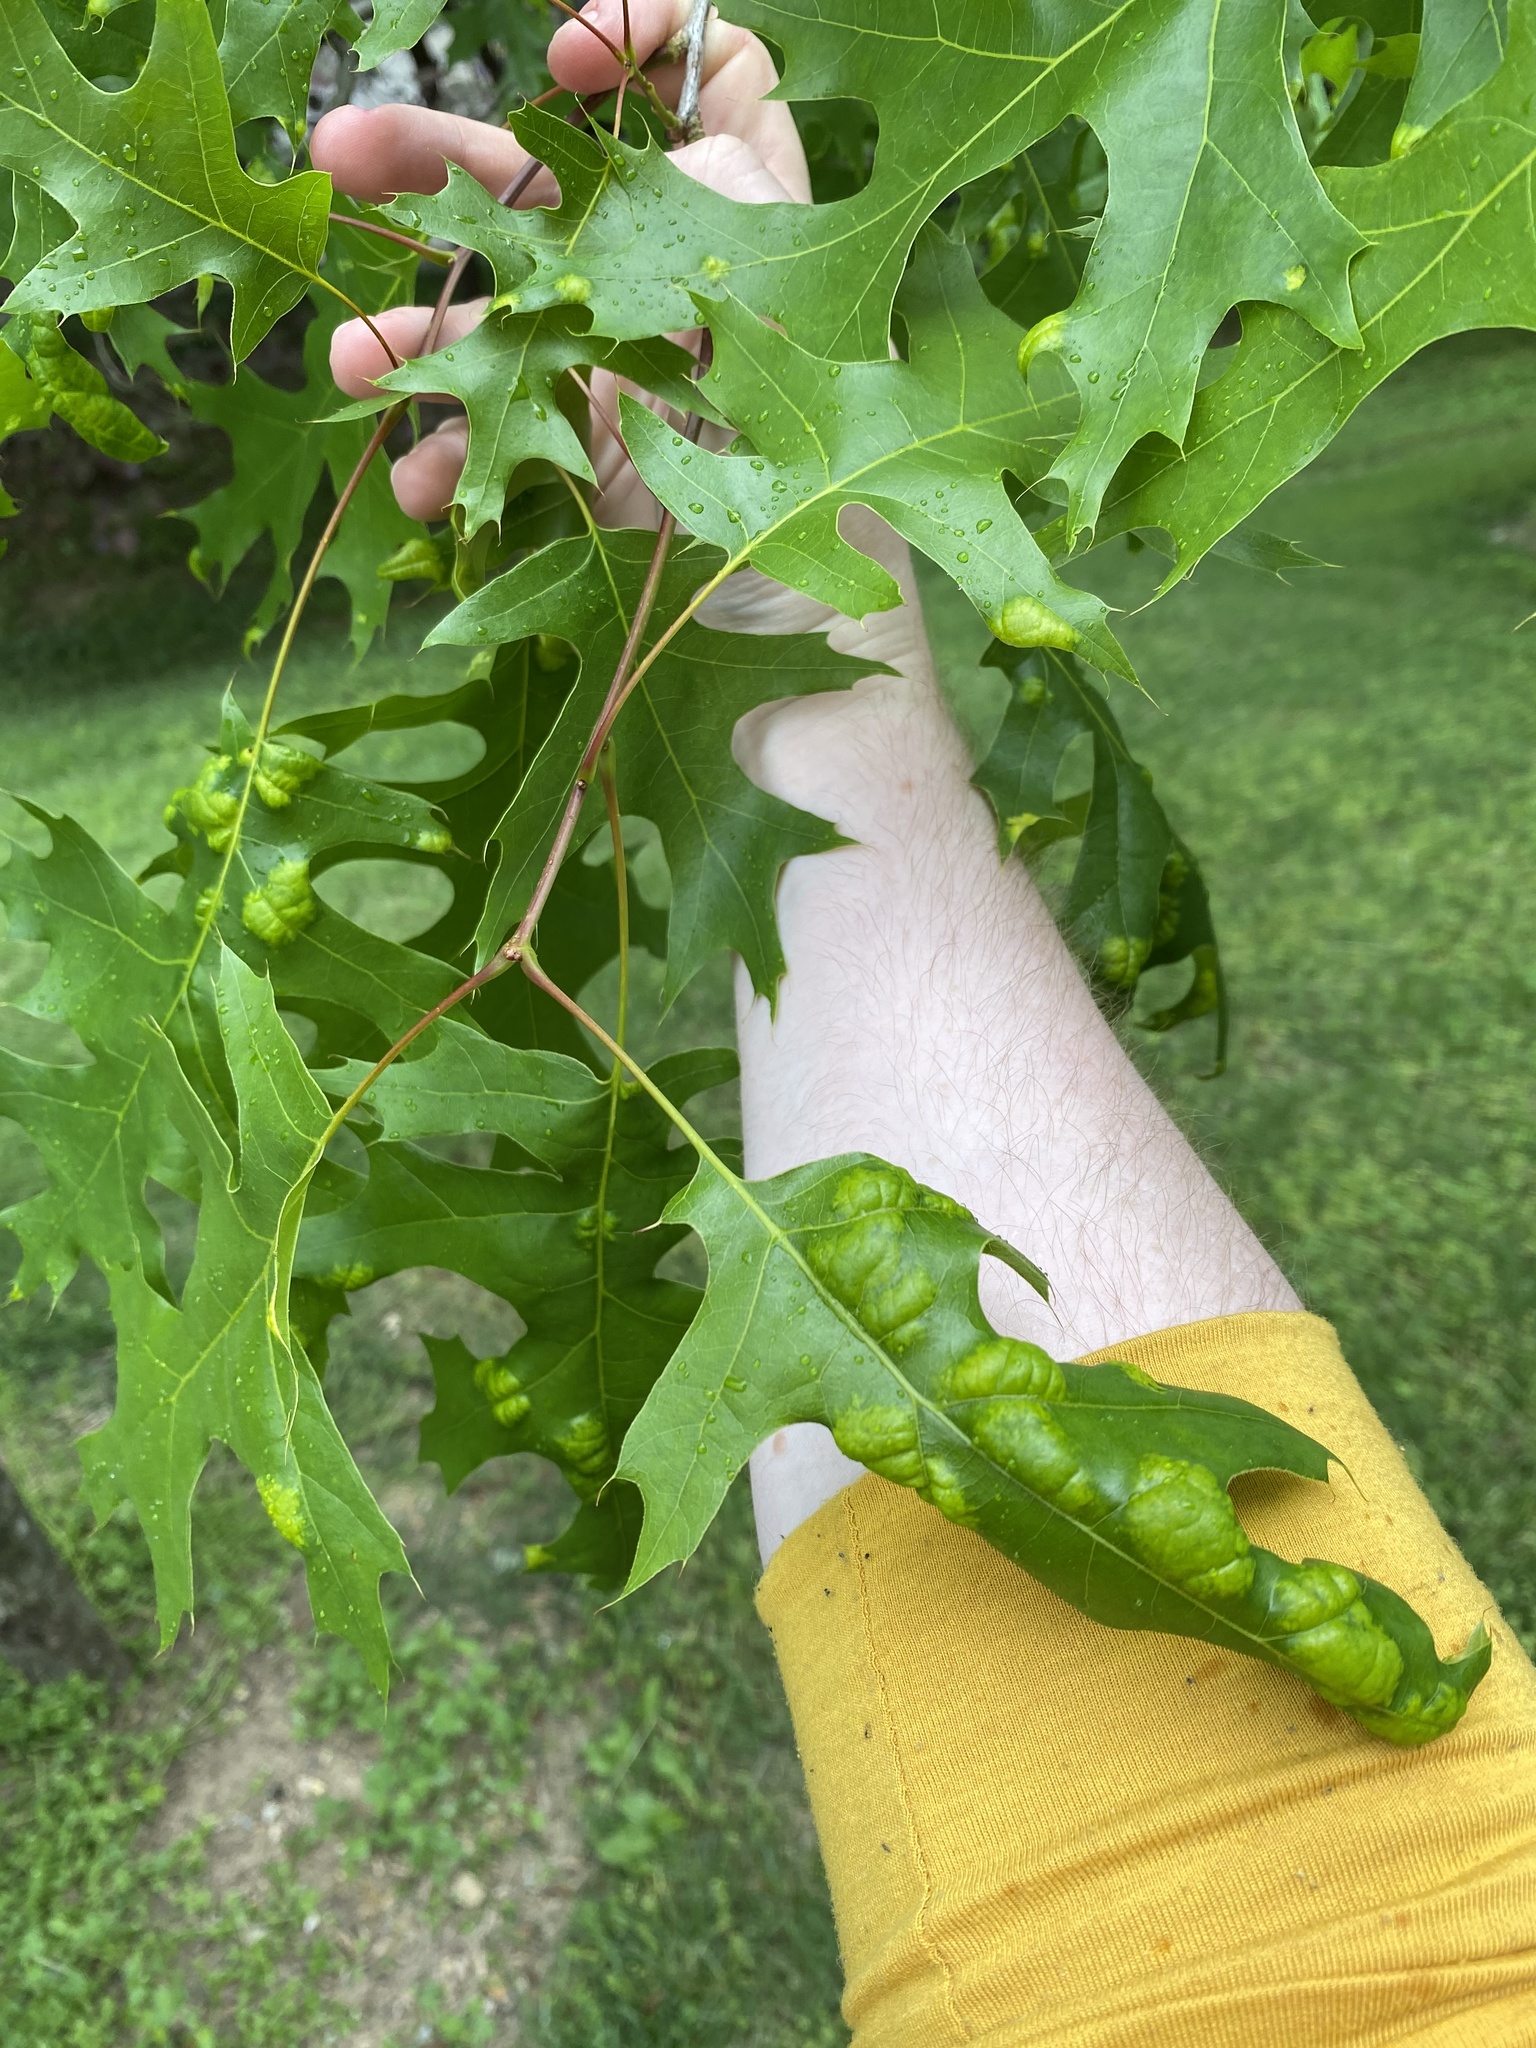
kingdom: Fungi
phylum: Ascomycota
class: Taphrinomycetes
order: Taphrinales
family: Taphrinaceae
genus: Taphrina
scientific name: Taphrina caerulescens
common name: Oak leaf blister
